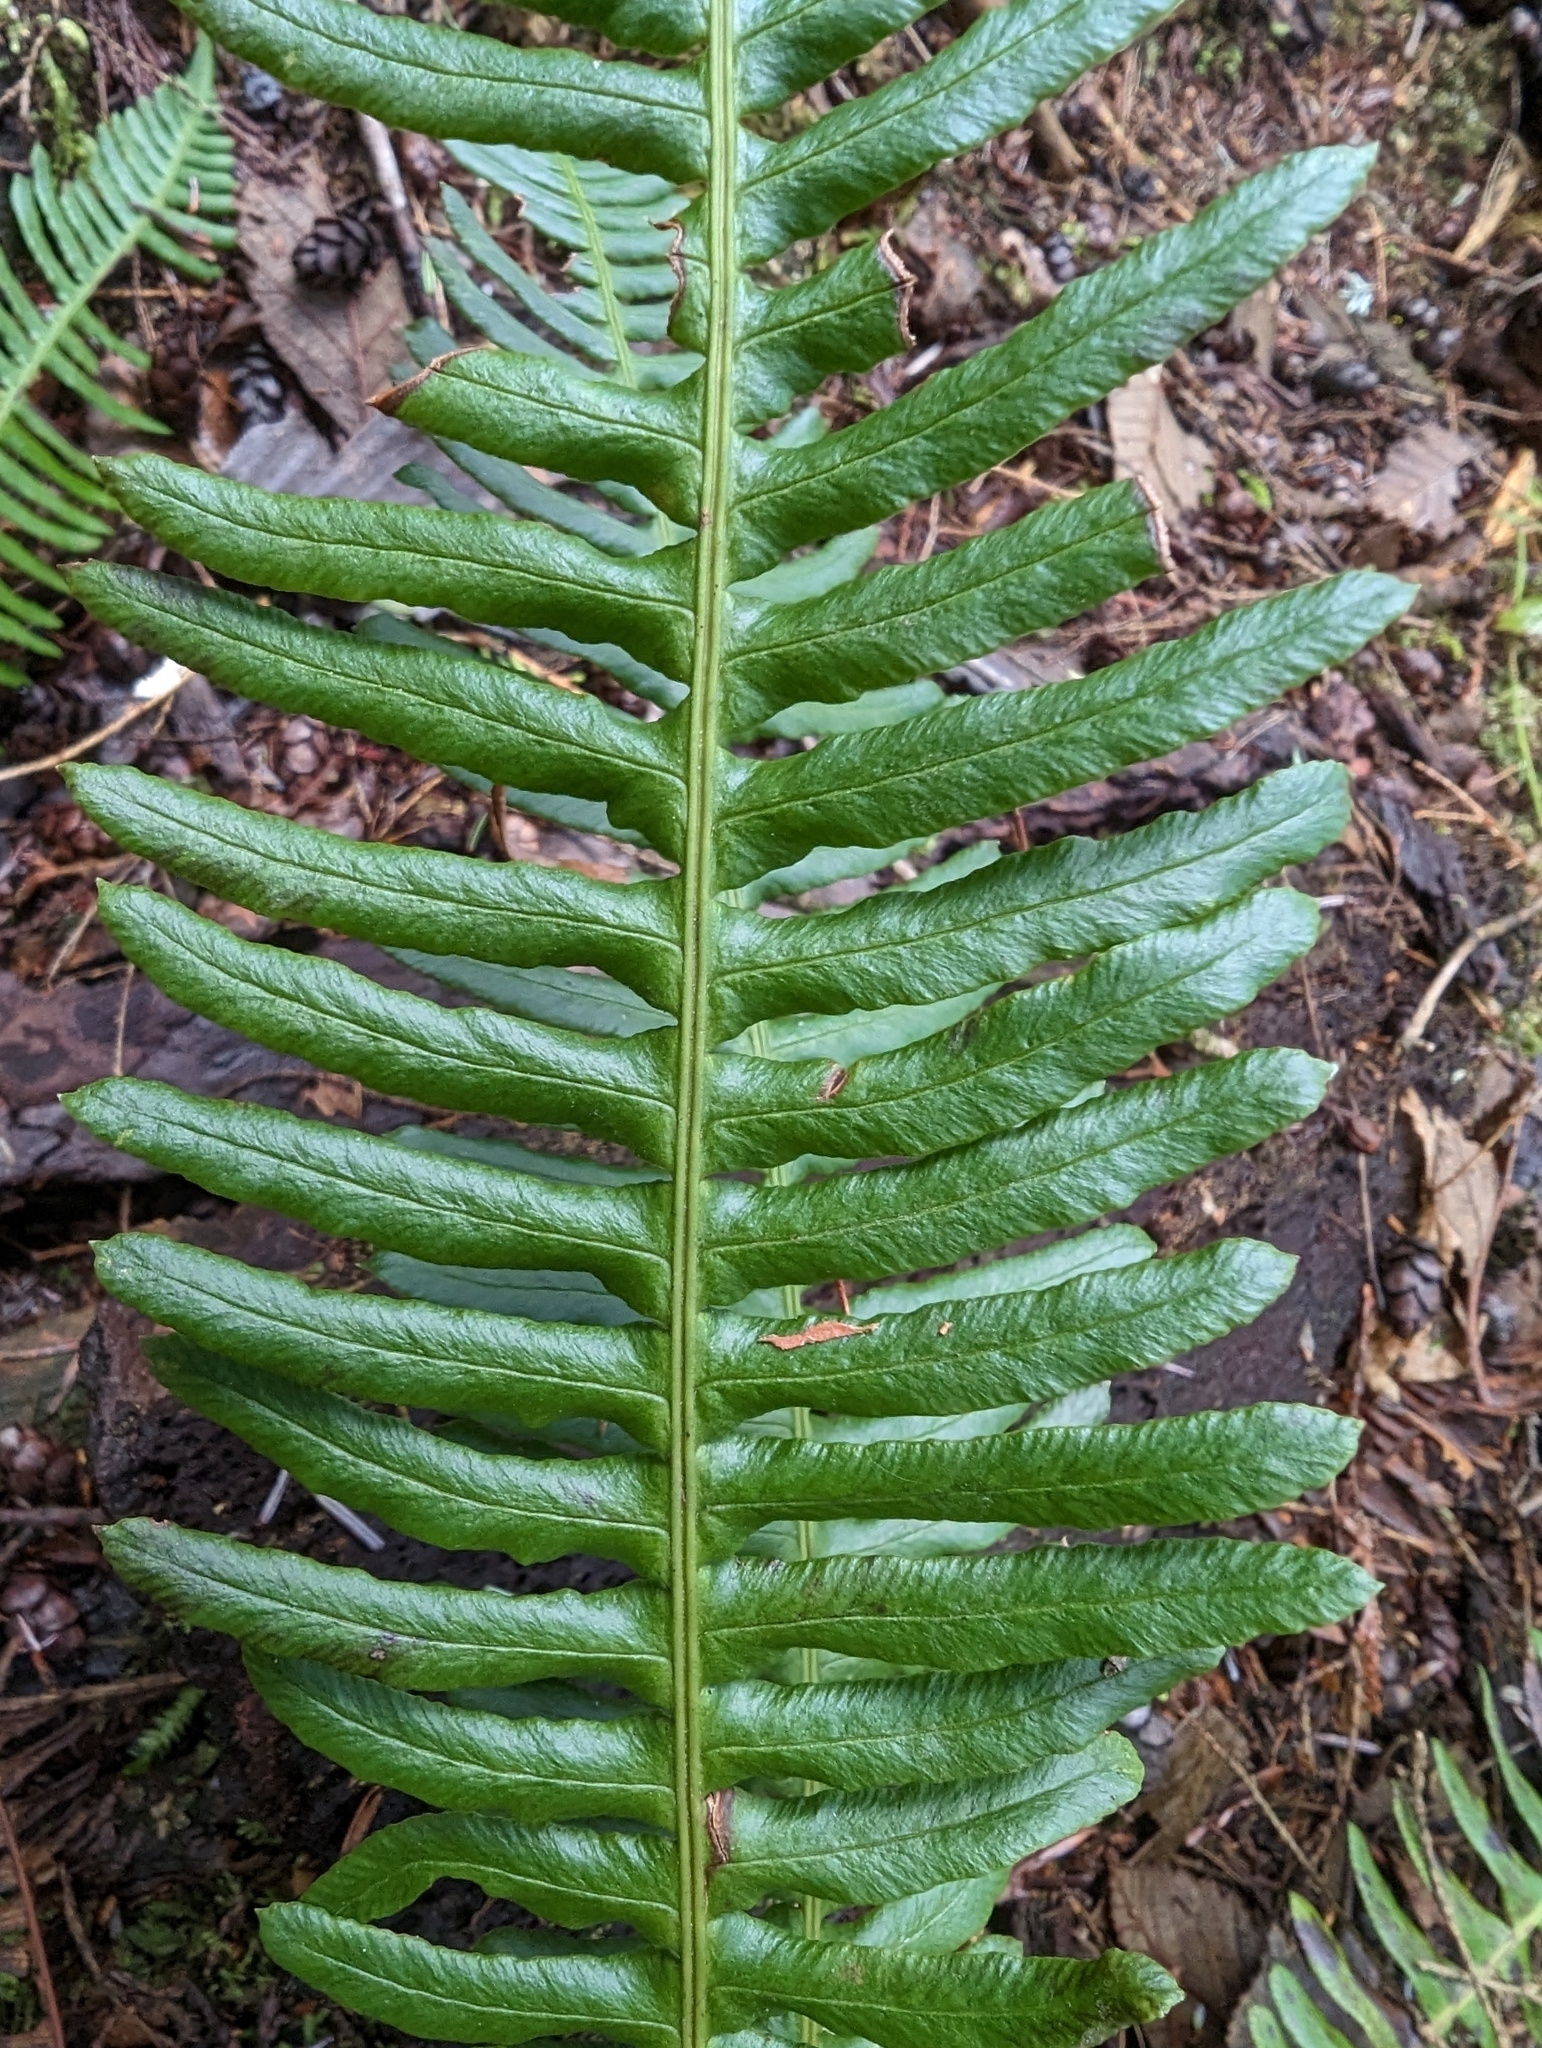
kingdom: Plantae
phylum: Tracheophyta
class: Polypodiopsida
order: Polypodiales
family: Blechnaceae
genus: Struthiopteris
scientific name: Struthiopteris spicant
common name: Deer fern
